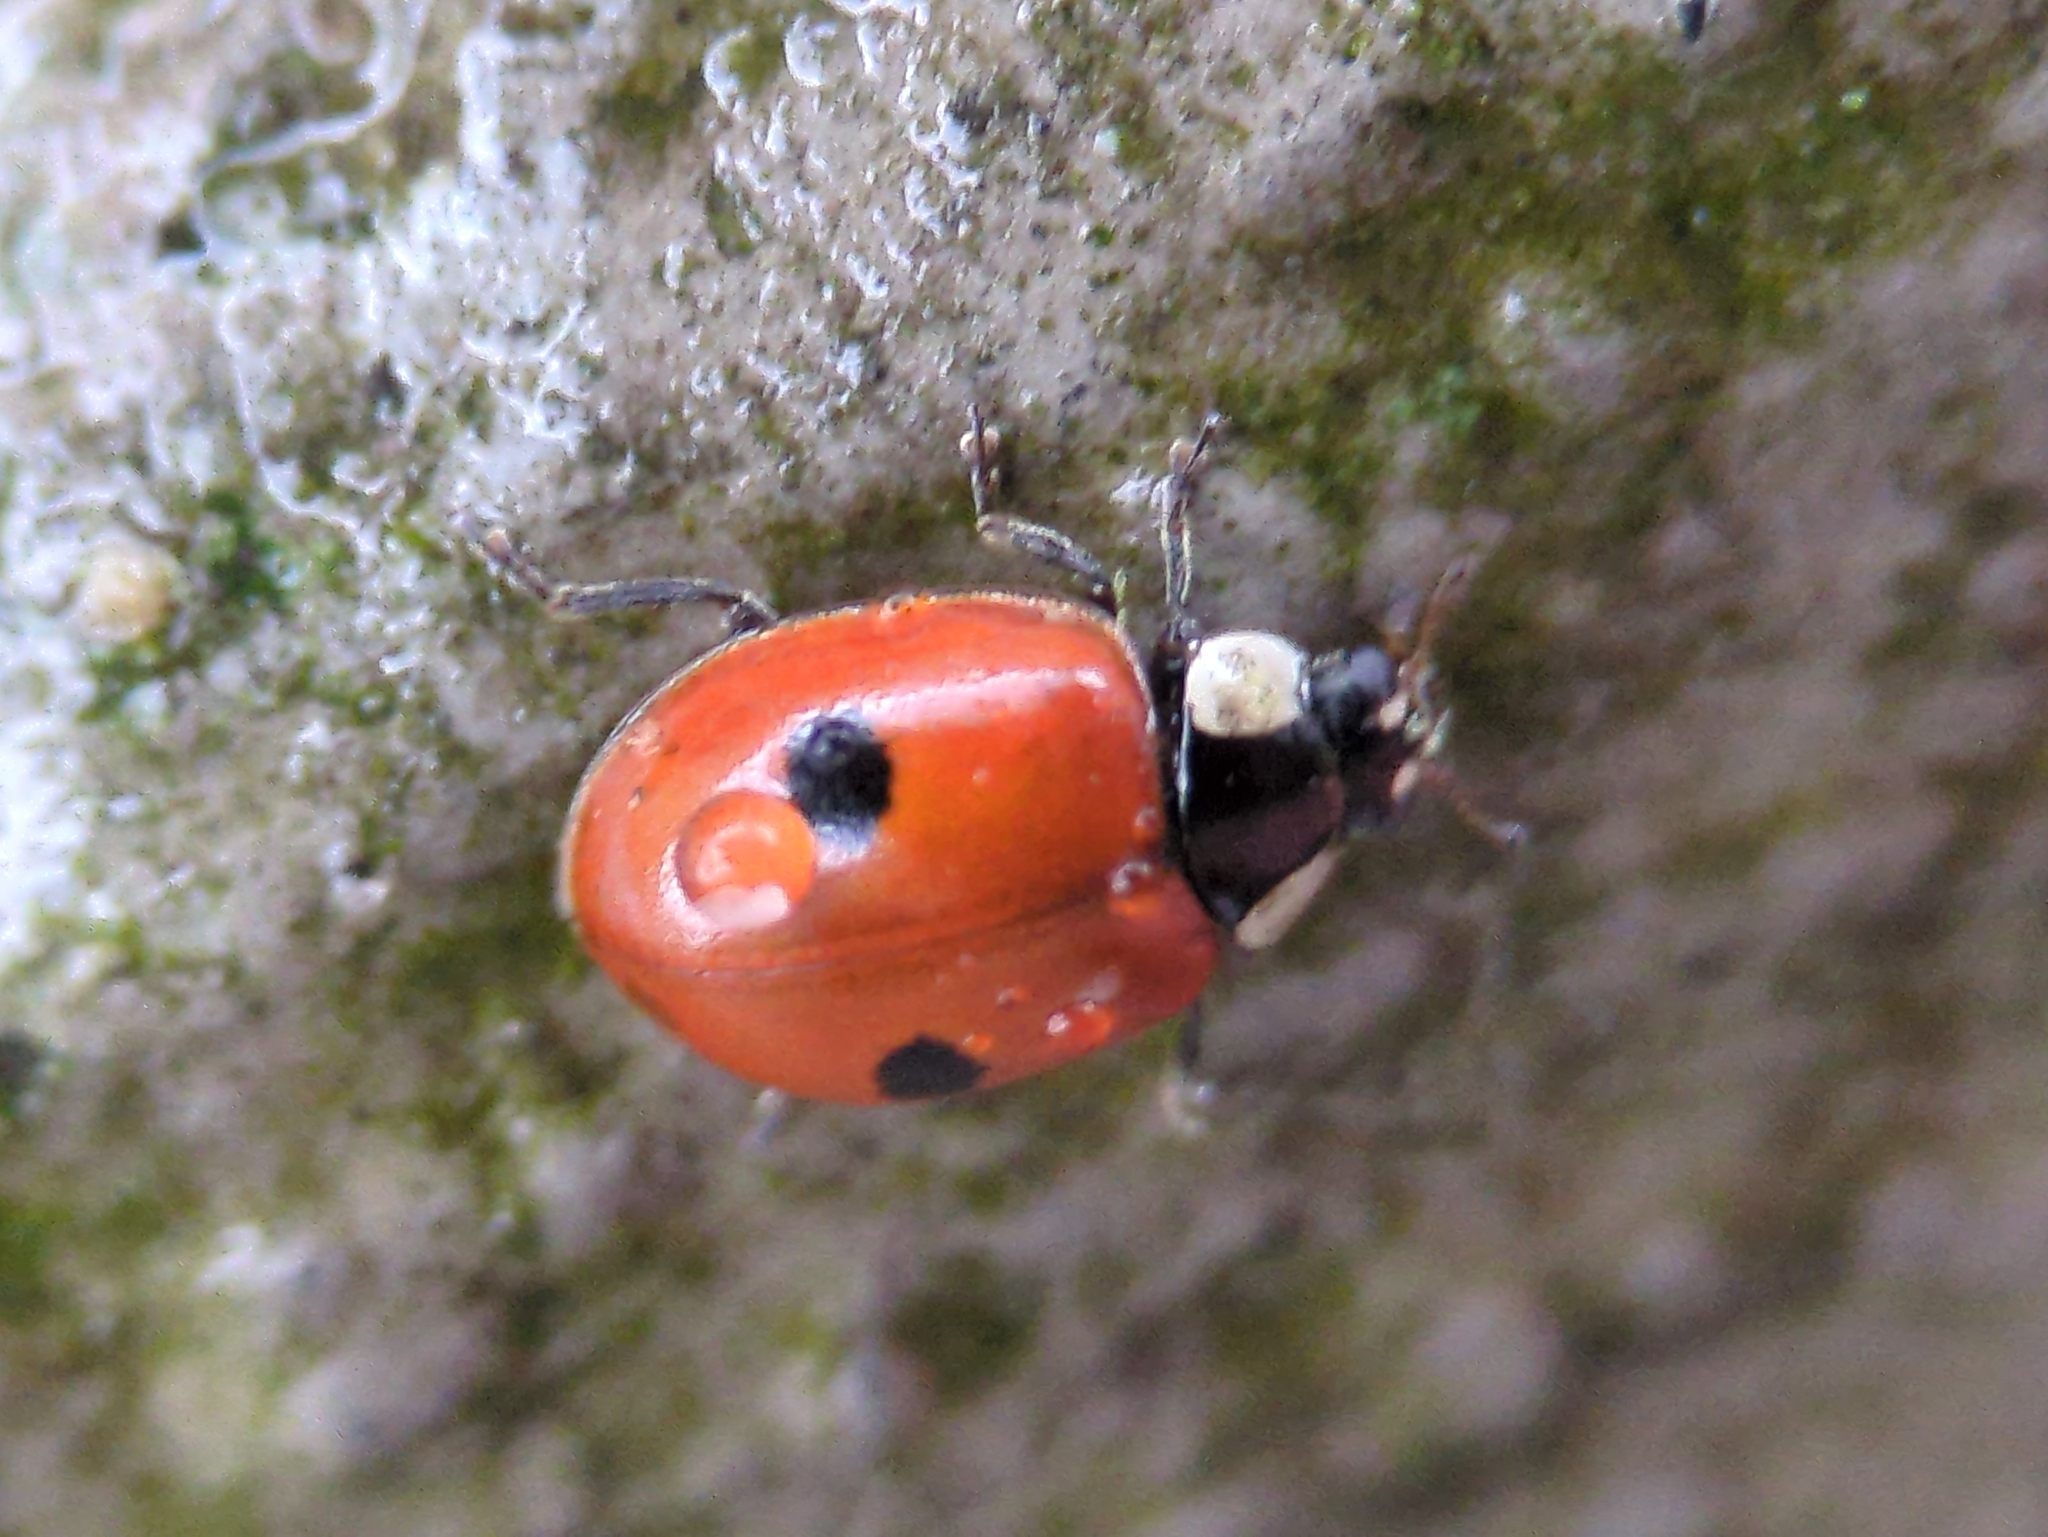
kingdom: Animalia
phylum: Arthropoda
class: Insecta
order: Coleoptera
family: Coccinellidae
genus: Adalia
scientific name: Adalia bipunctata
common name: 2-spot ladybird
